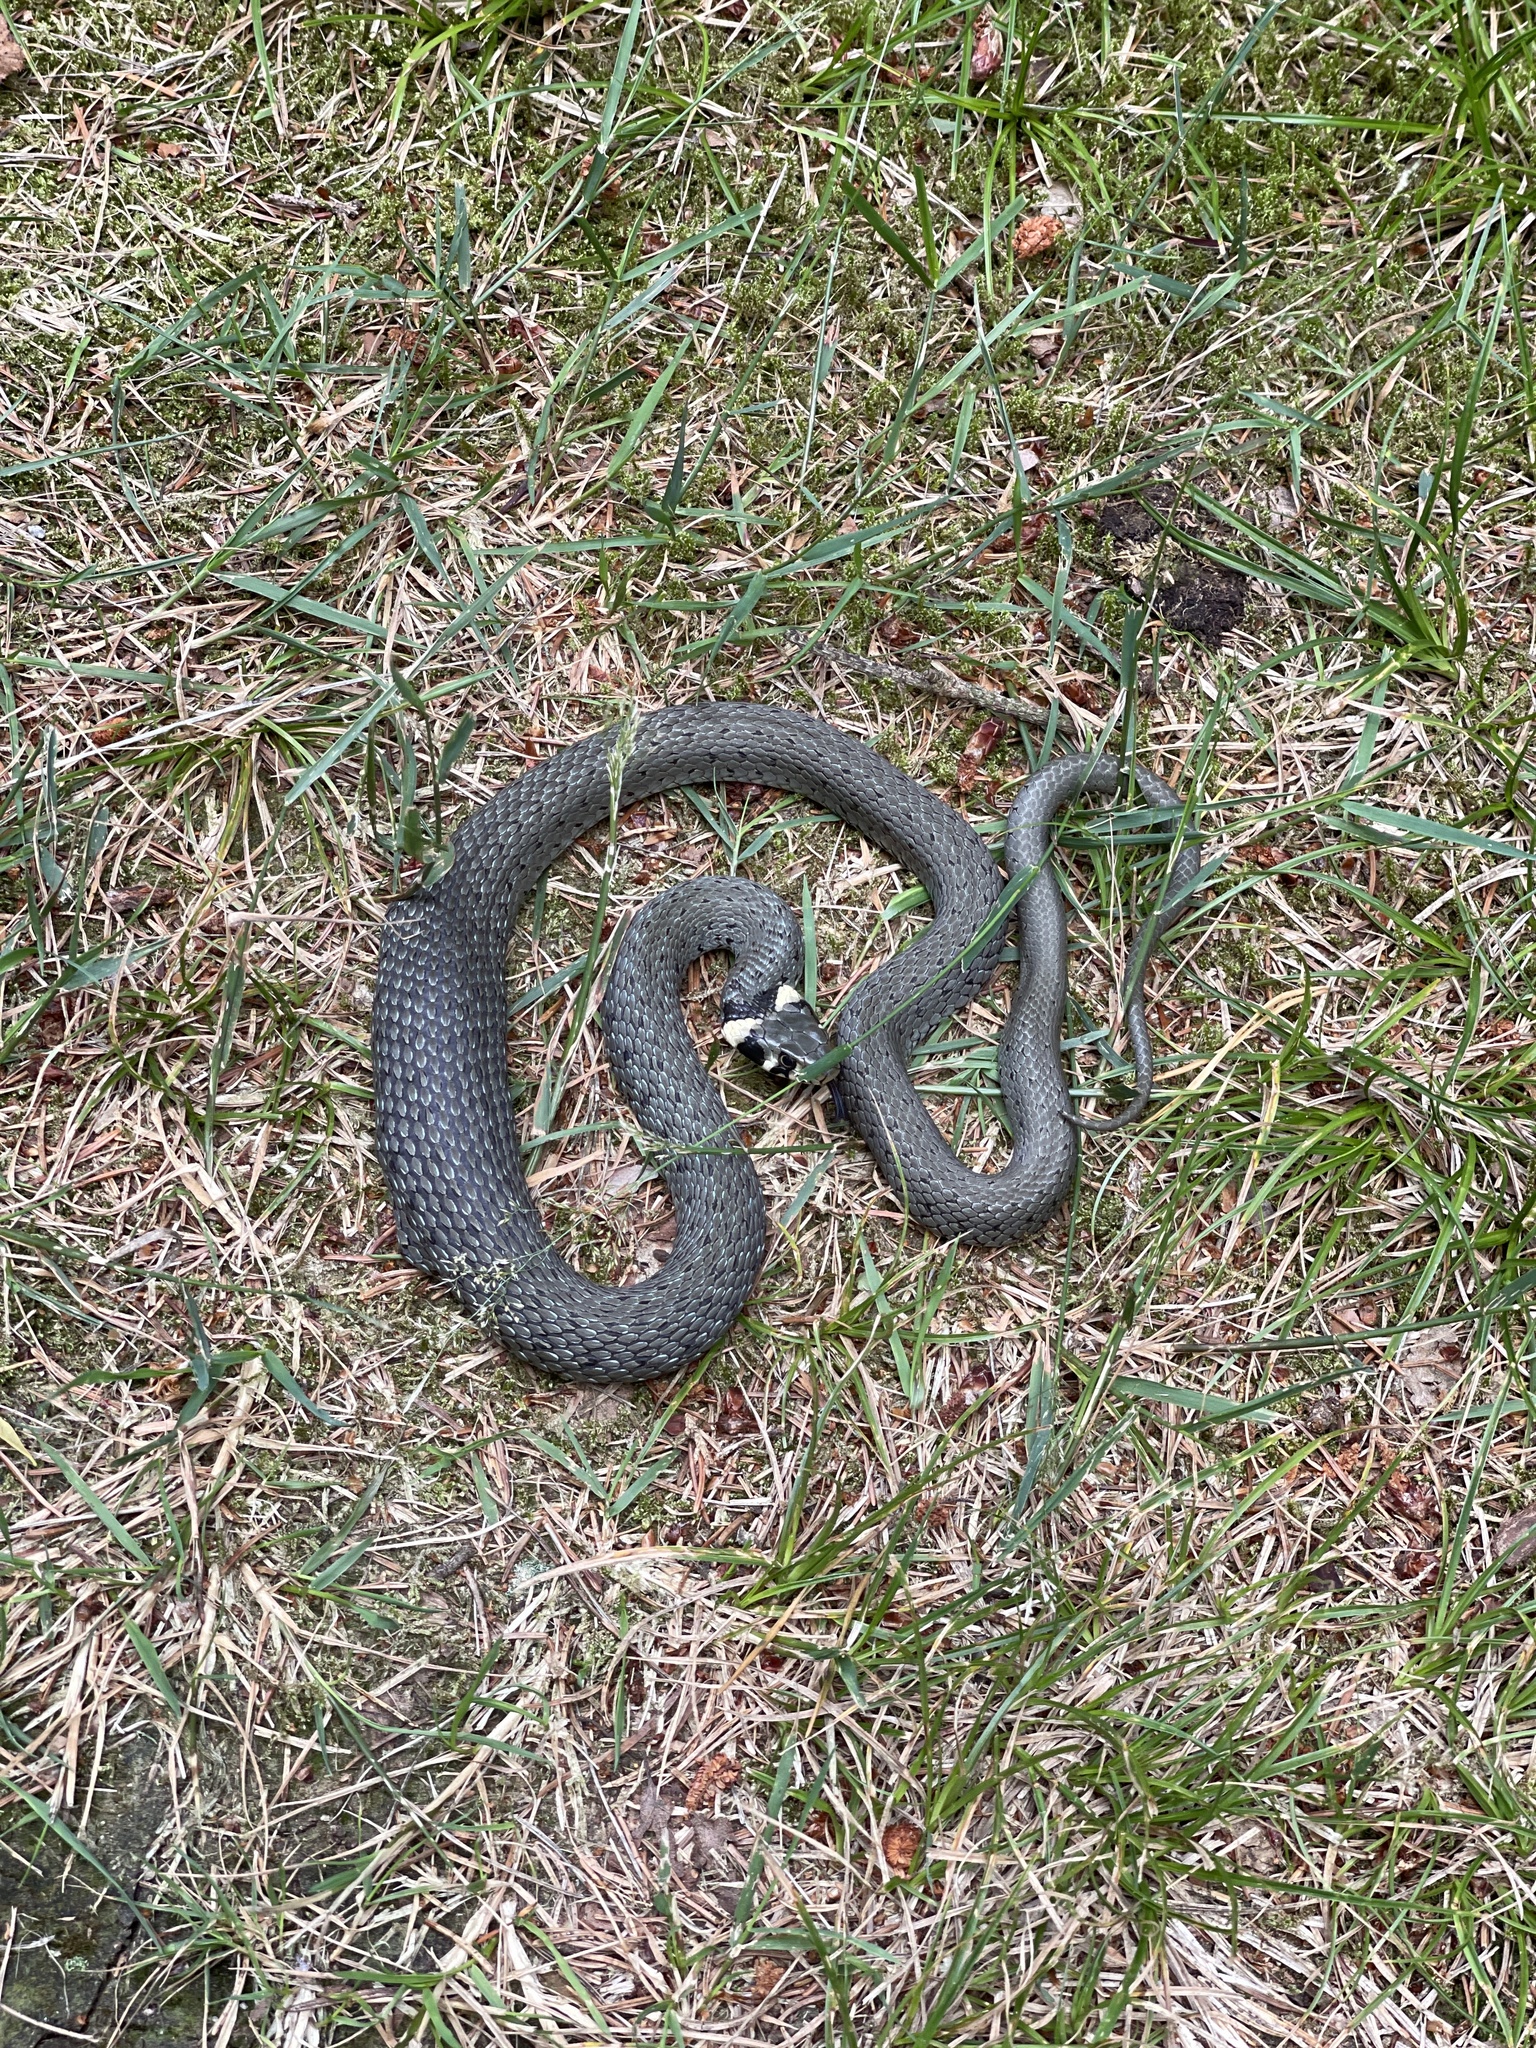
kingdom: Animalia
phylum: Chordata
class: Squamata
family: Colubridae
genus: Natrix
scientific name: Natrix natrix
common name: Grass snake
